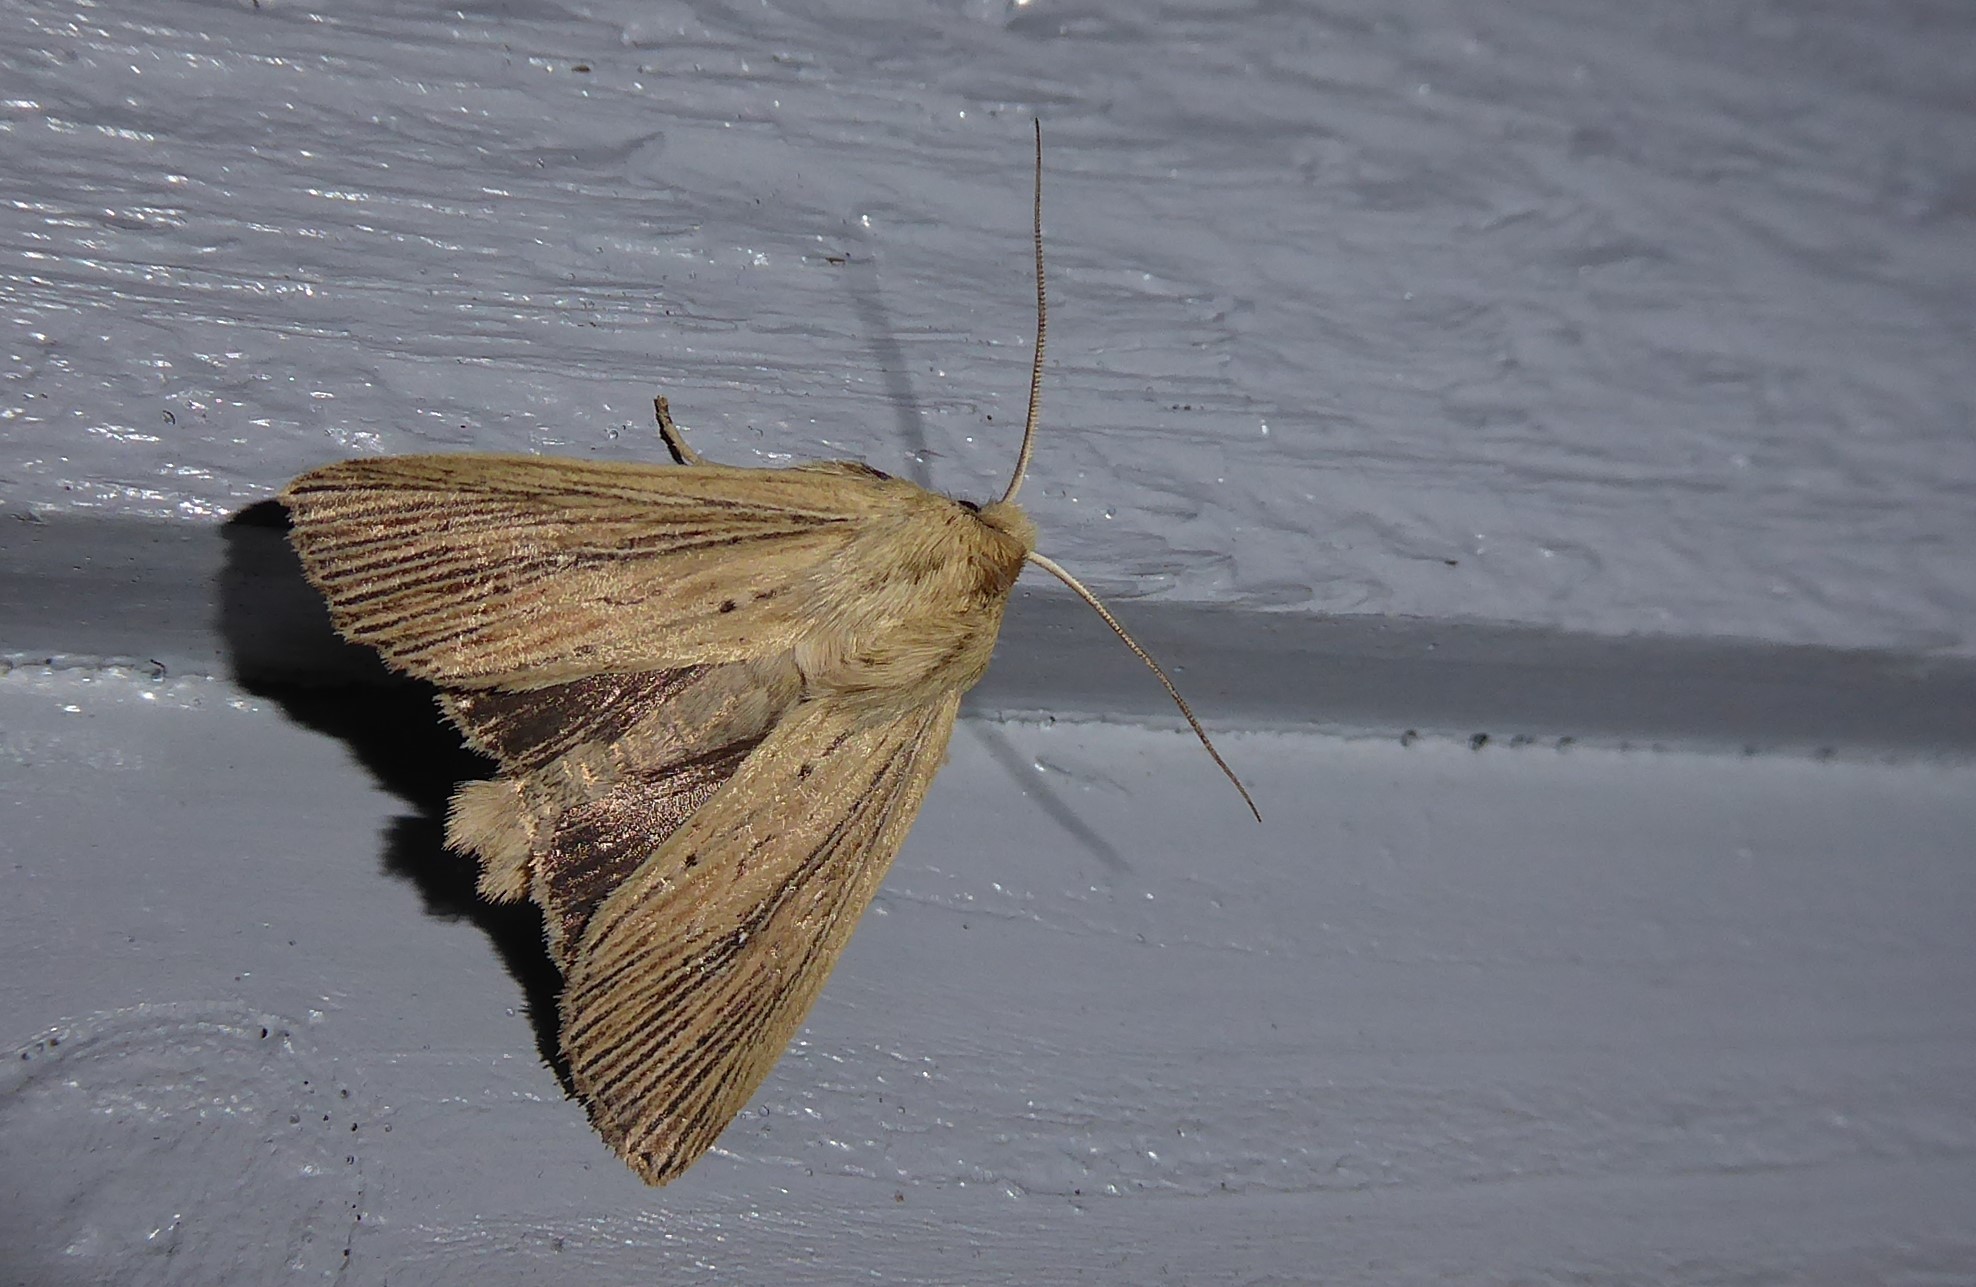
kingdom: Animalia
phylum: Arthropoda
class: Insecta
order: Lepidoptera
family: Noctuidae
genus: Ichneutica
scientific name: Ichneutica arotis
